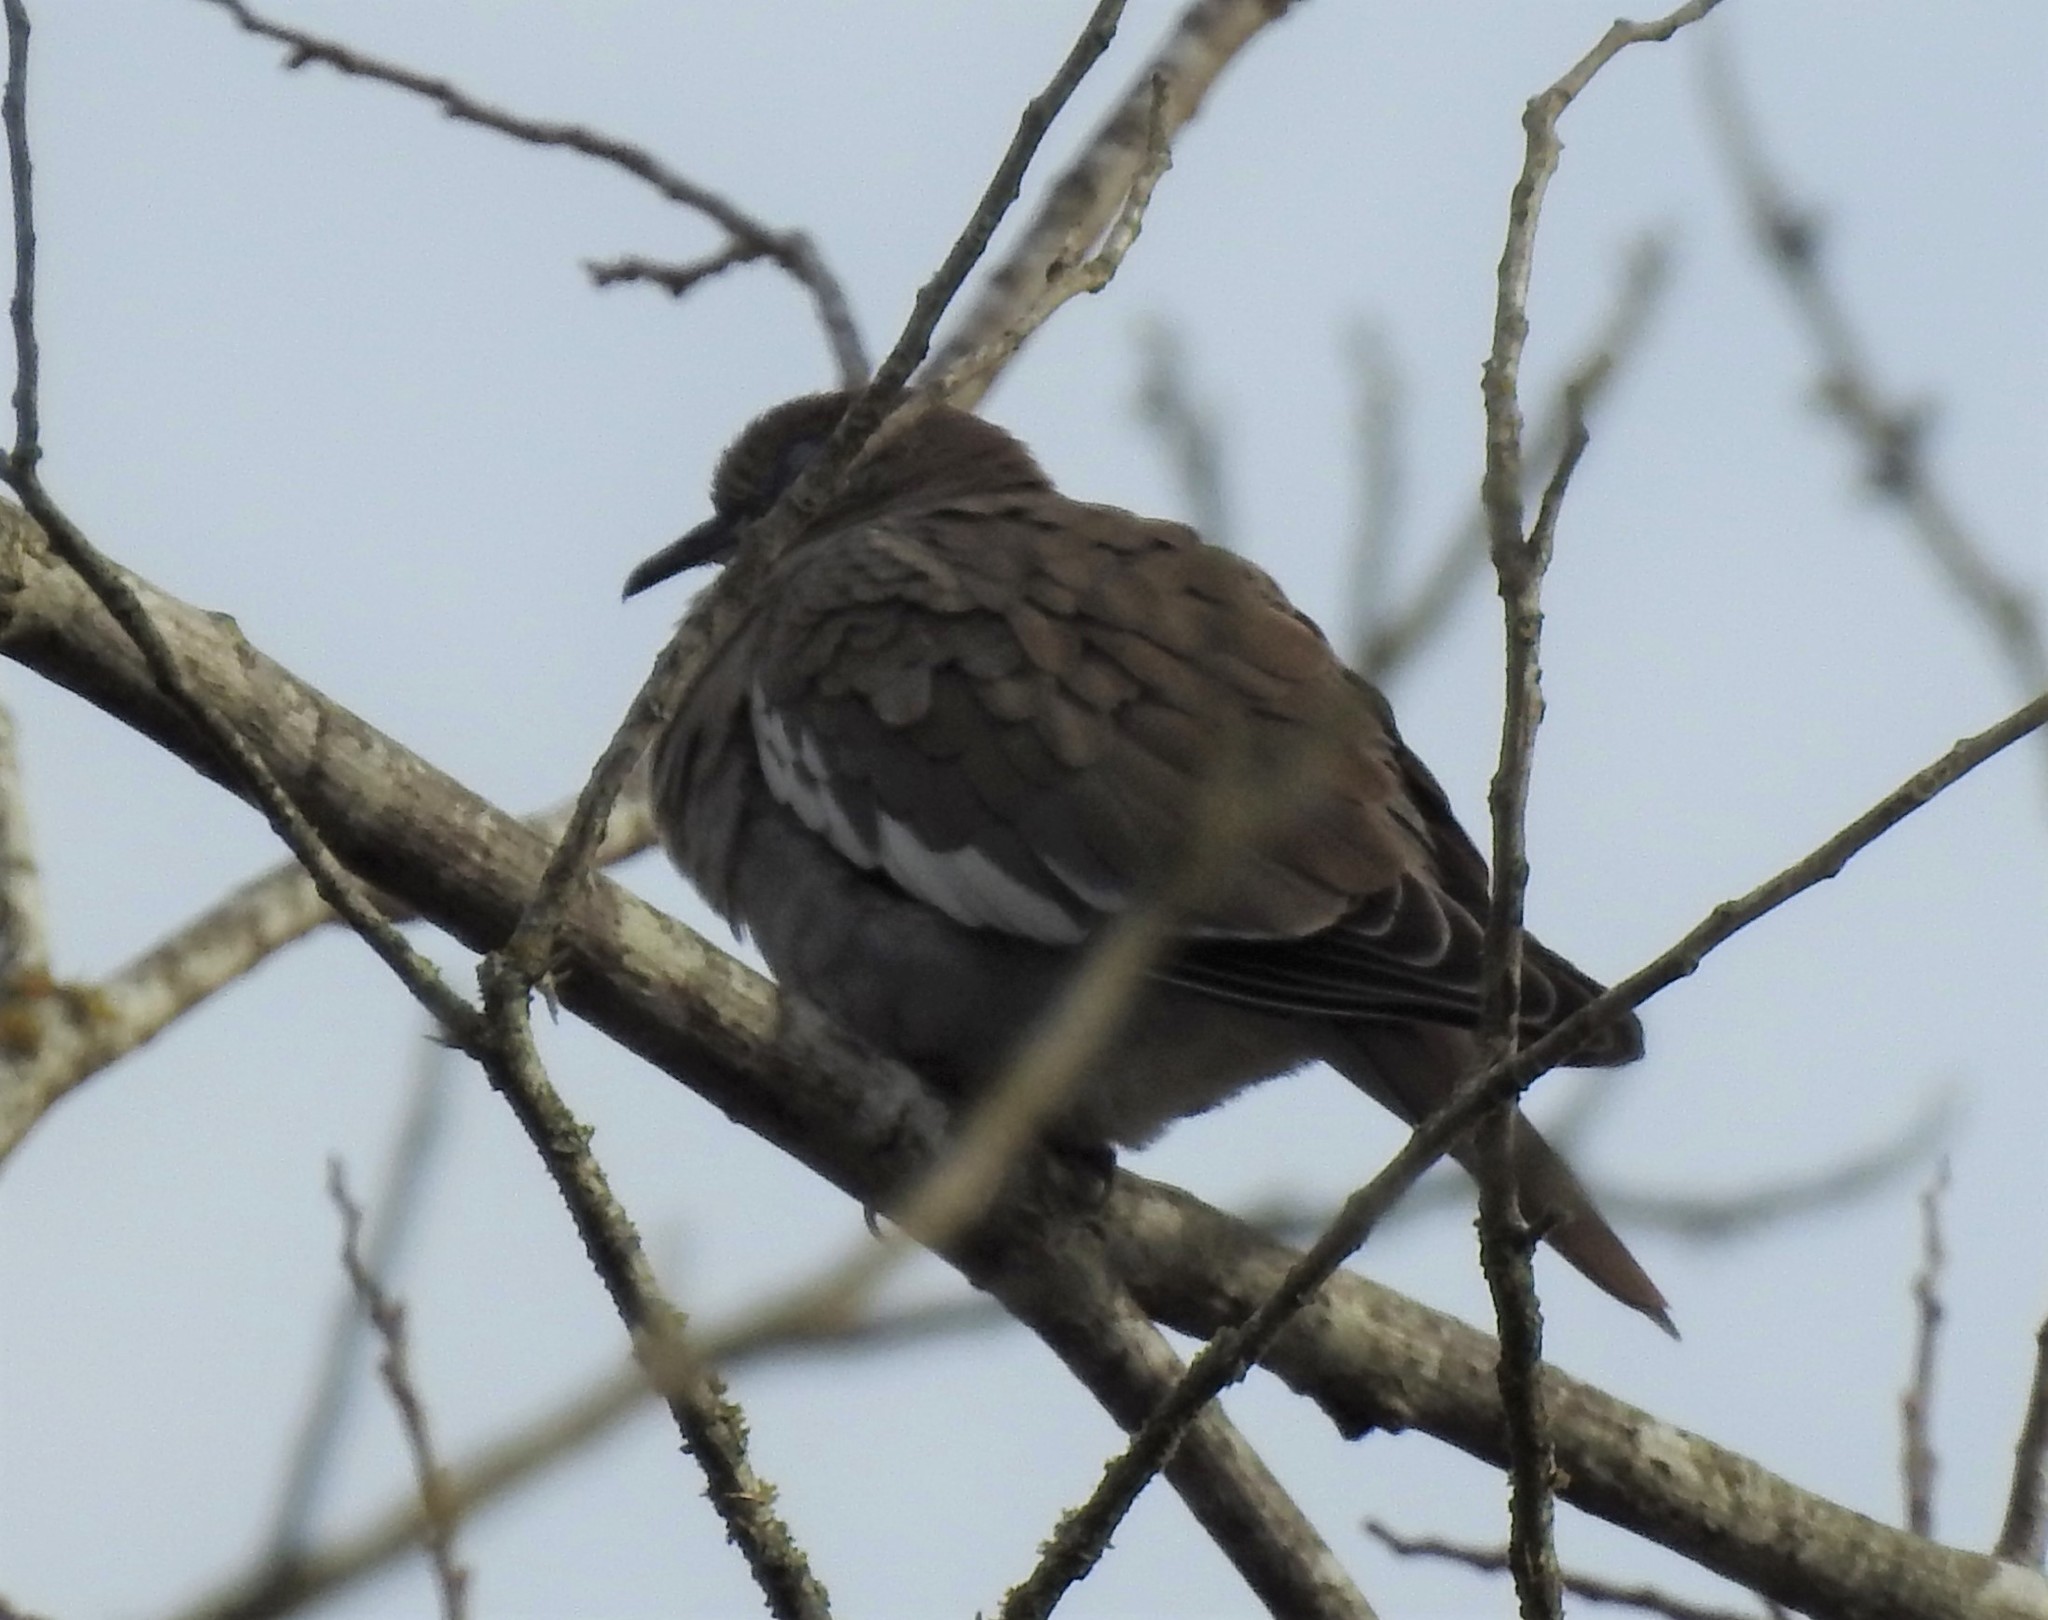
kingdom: Animalia
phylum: Chordata
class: Aves
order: Columbiformes
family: Columbidae
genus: Zenaida
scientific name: Zenaida asiatica
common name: White-winged dove
